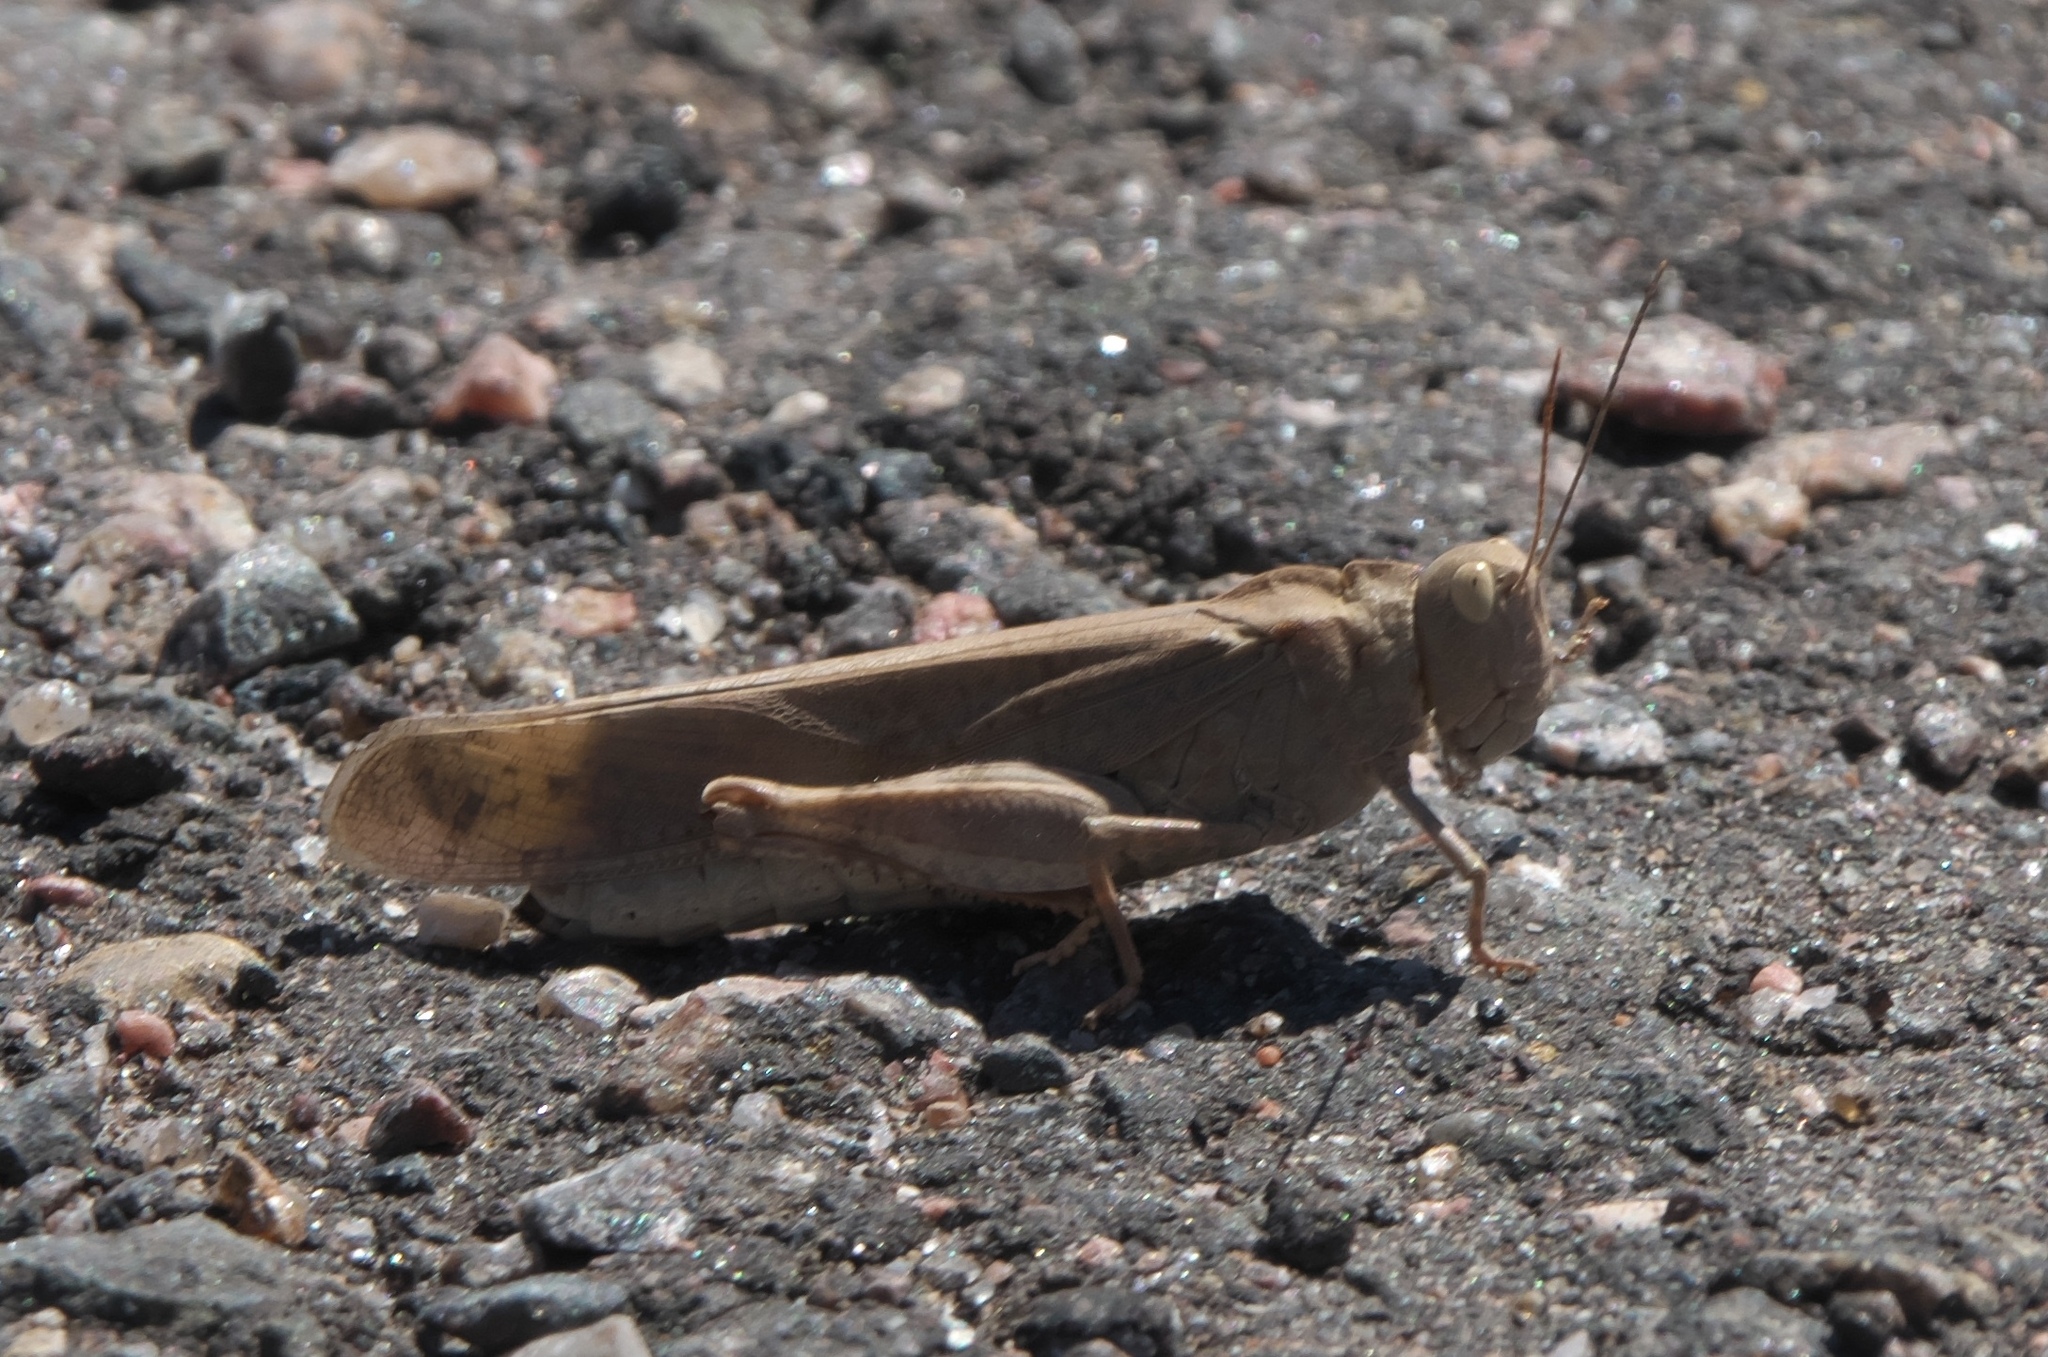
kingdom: Animalia
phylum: Arthropoda
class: Insecta
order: Orthoptera
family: Acrididae
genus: Dissosteira
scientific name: Dissosteira carolina
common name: Carolina grasshopper
